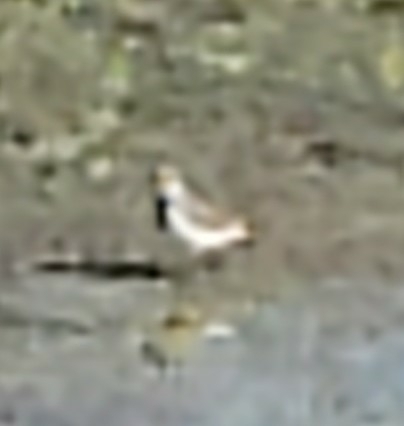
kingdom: Animalia
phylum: Chordata
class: Aves
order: Charadriiformes
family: Charadriidae
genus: Charadrius
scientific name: Charadrius semipalmatus
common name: Semipalmated plover
